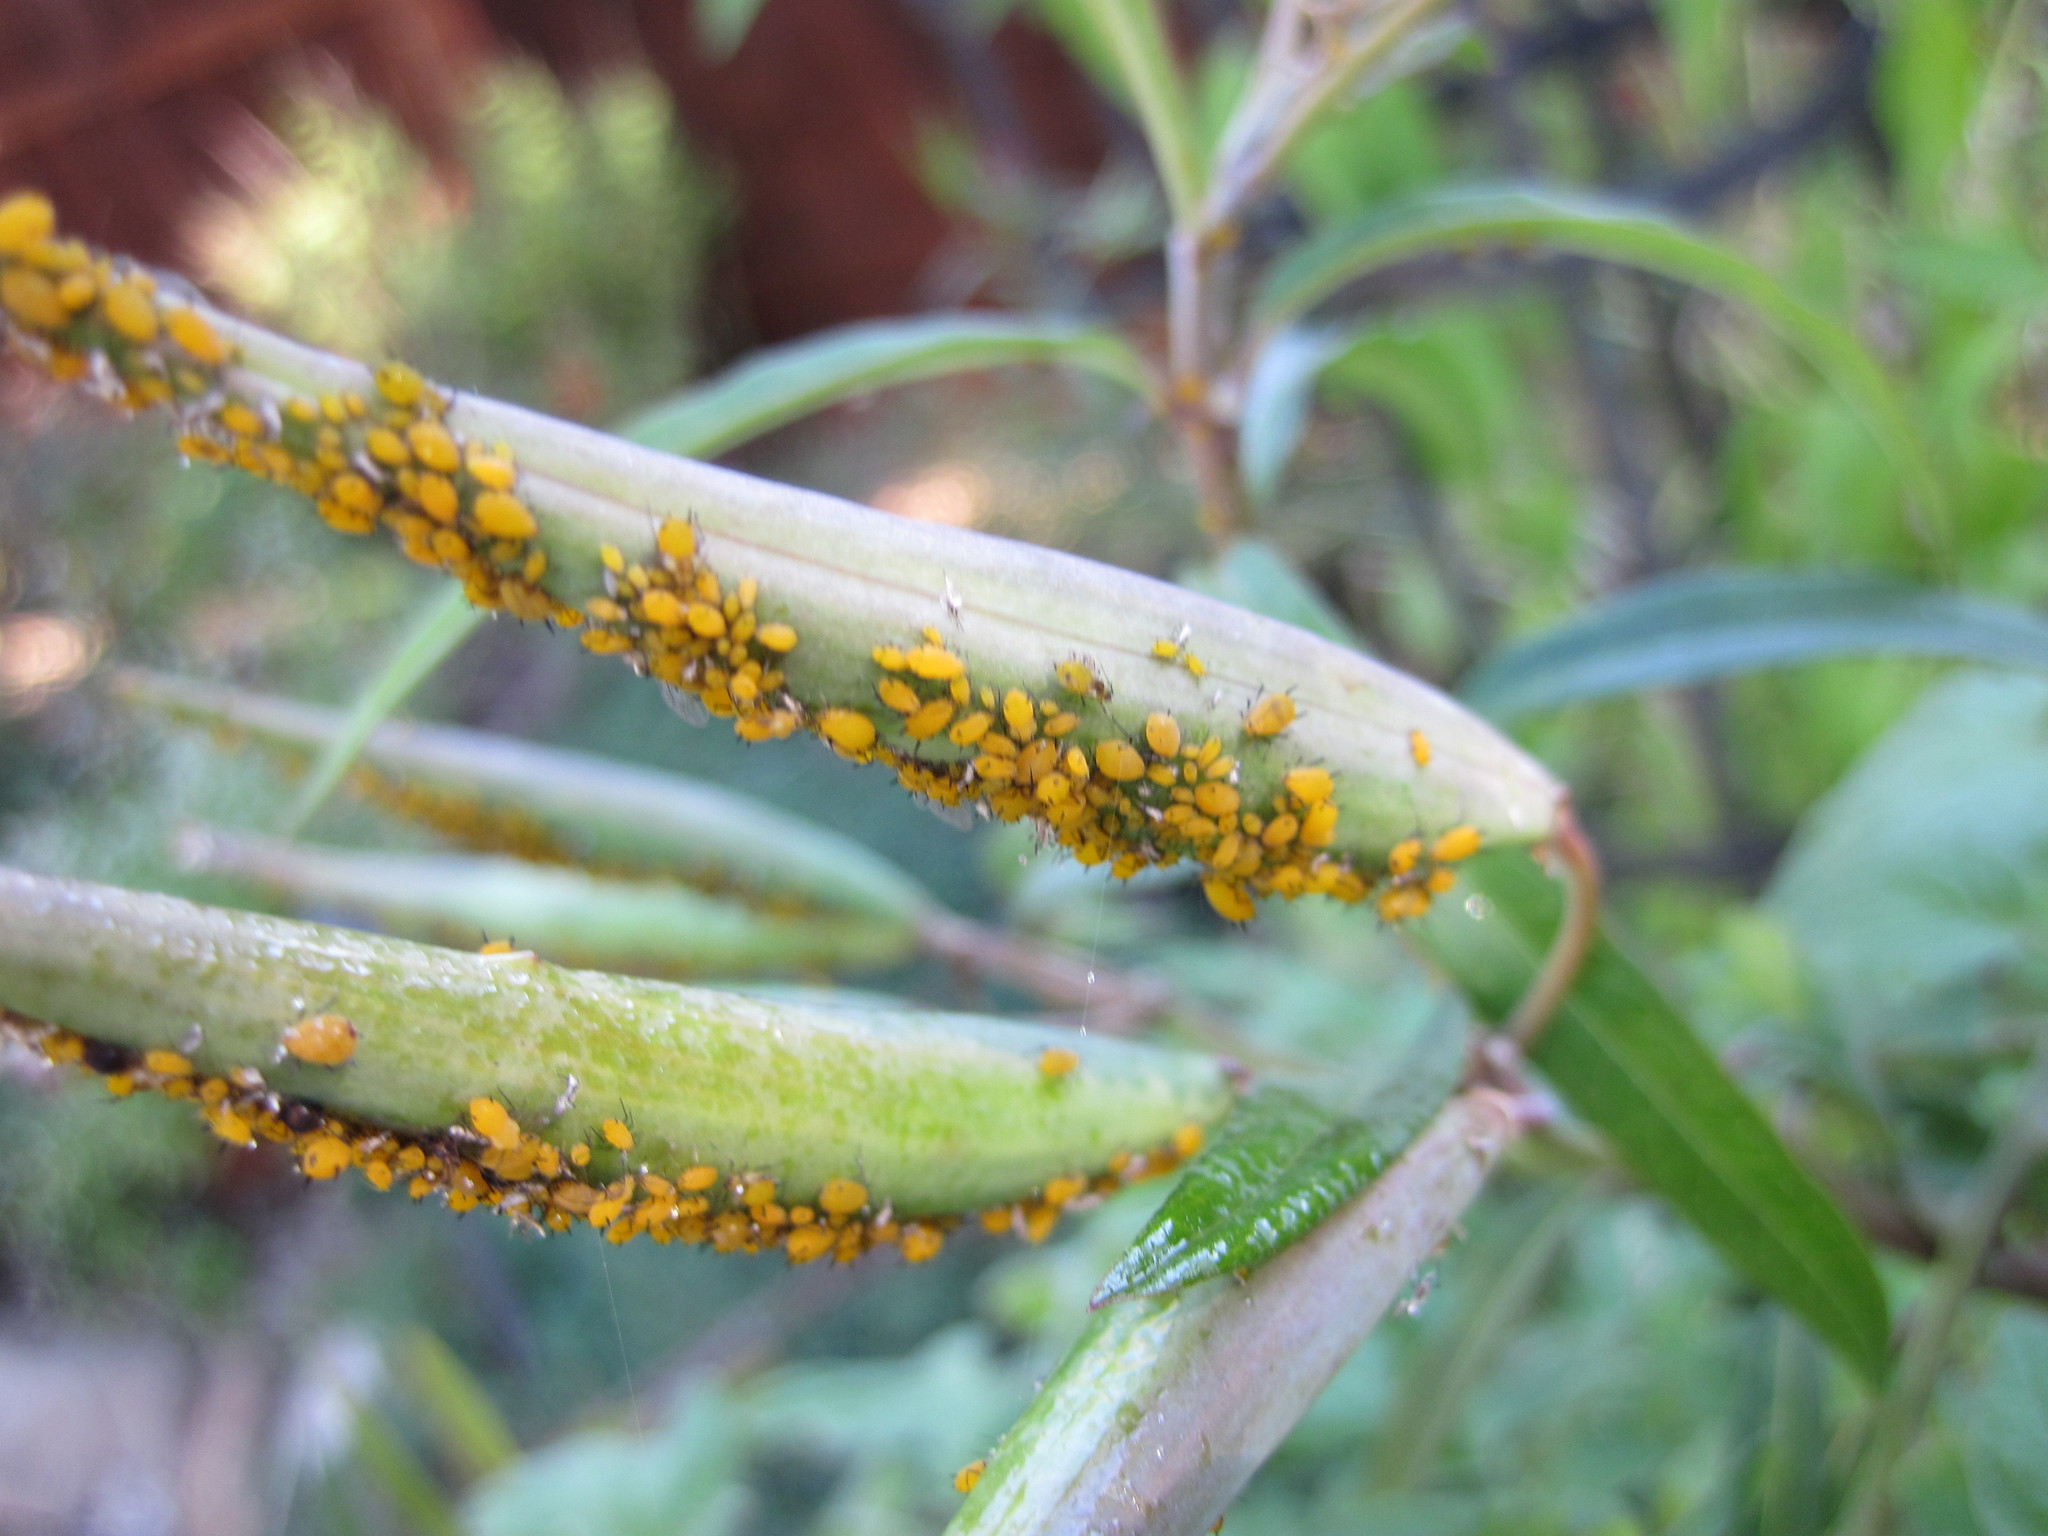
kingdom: Animalia
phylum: Arthropoda
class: Insecta
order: Hemiptera
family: Aphididae
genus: Aphis
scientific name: Aphis nerii
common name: Oleander aphid
